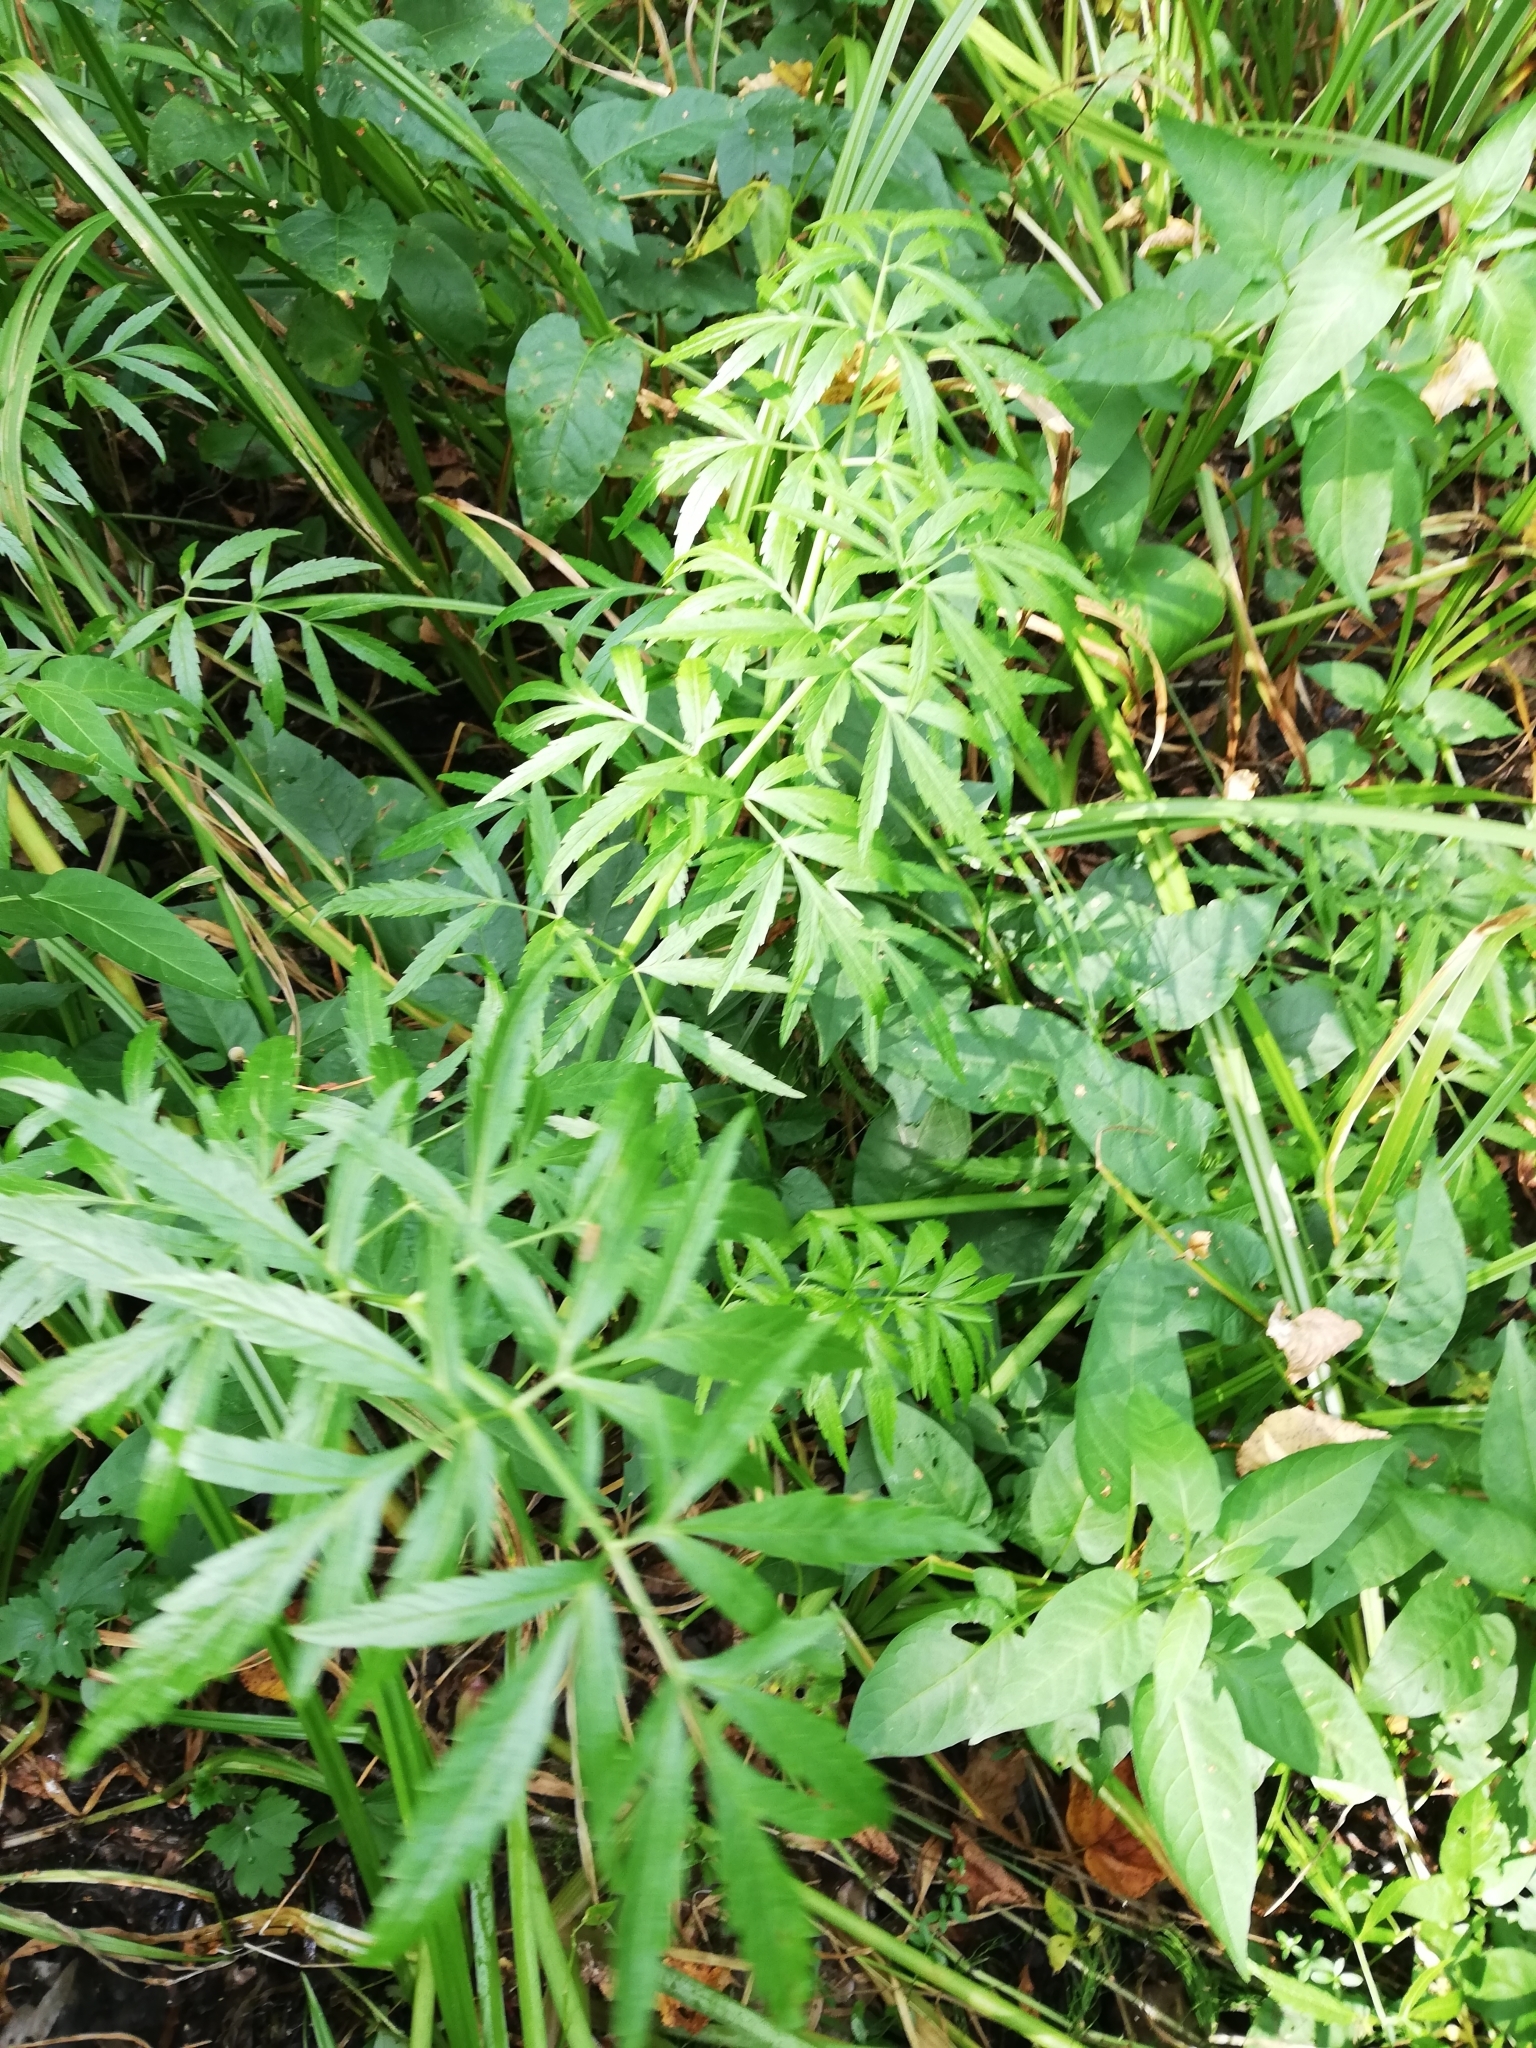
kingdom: Plantae
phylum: Tracheophyta
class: Magnoliopsida
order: Apiales
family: Apiaceae
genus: Cicuta
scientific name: Cicuta virosa
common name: Cowbane
